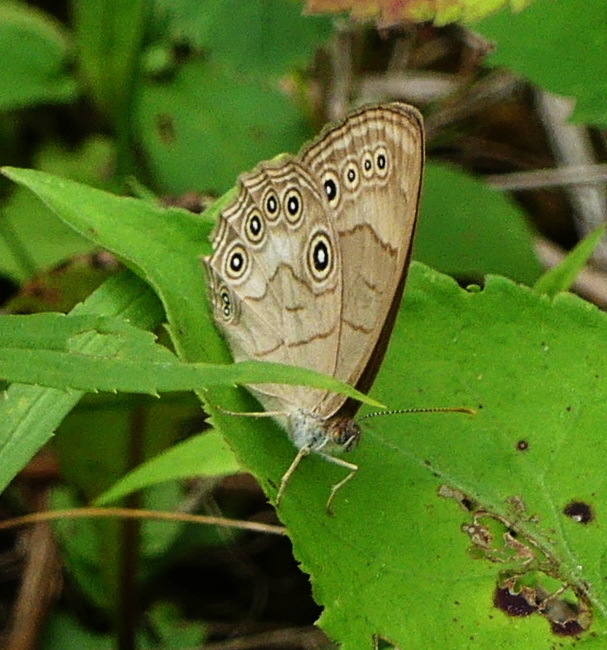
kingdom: Animalia
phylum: Arthropoda
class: Insecta
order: Lepidoptera
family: Nymphalidae
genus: Lethe
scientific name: Lethe eurydice
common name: Eyed brown
